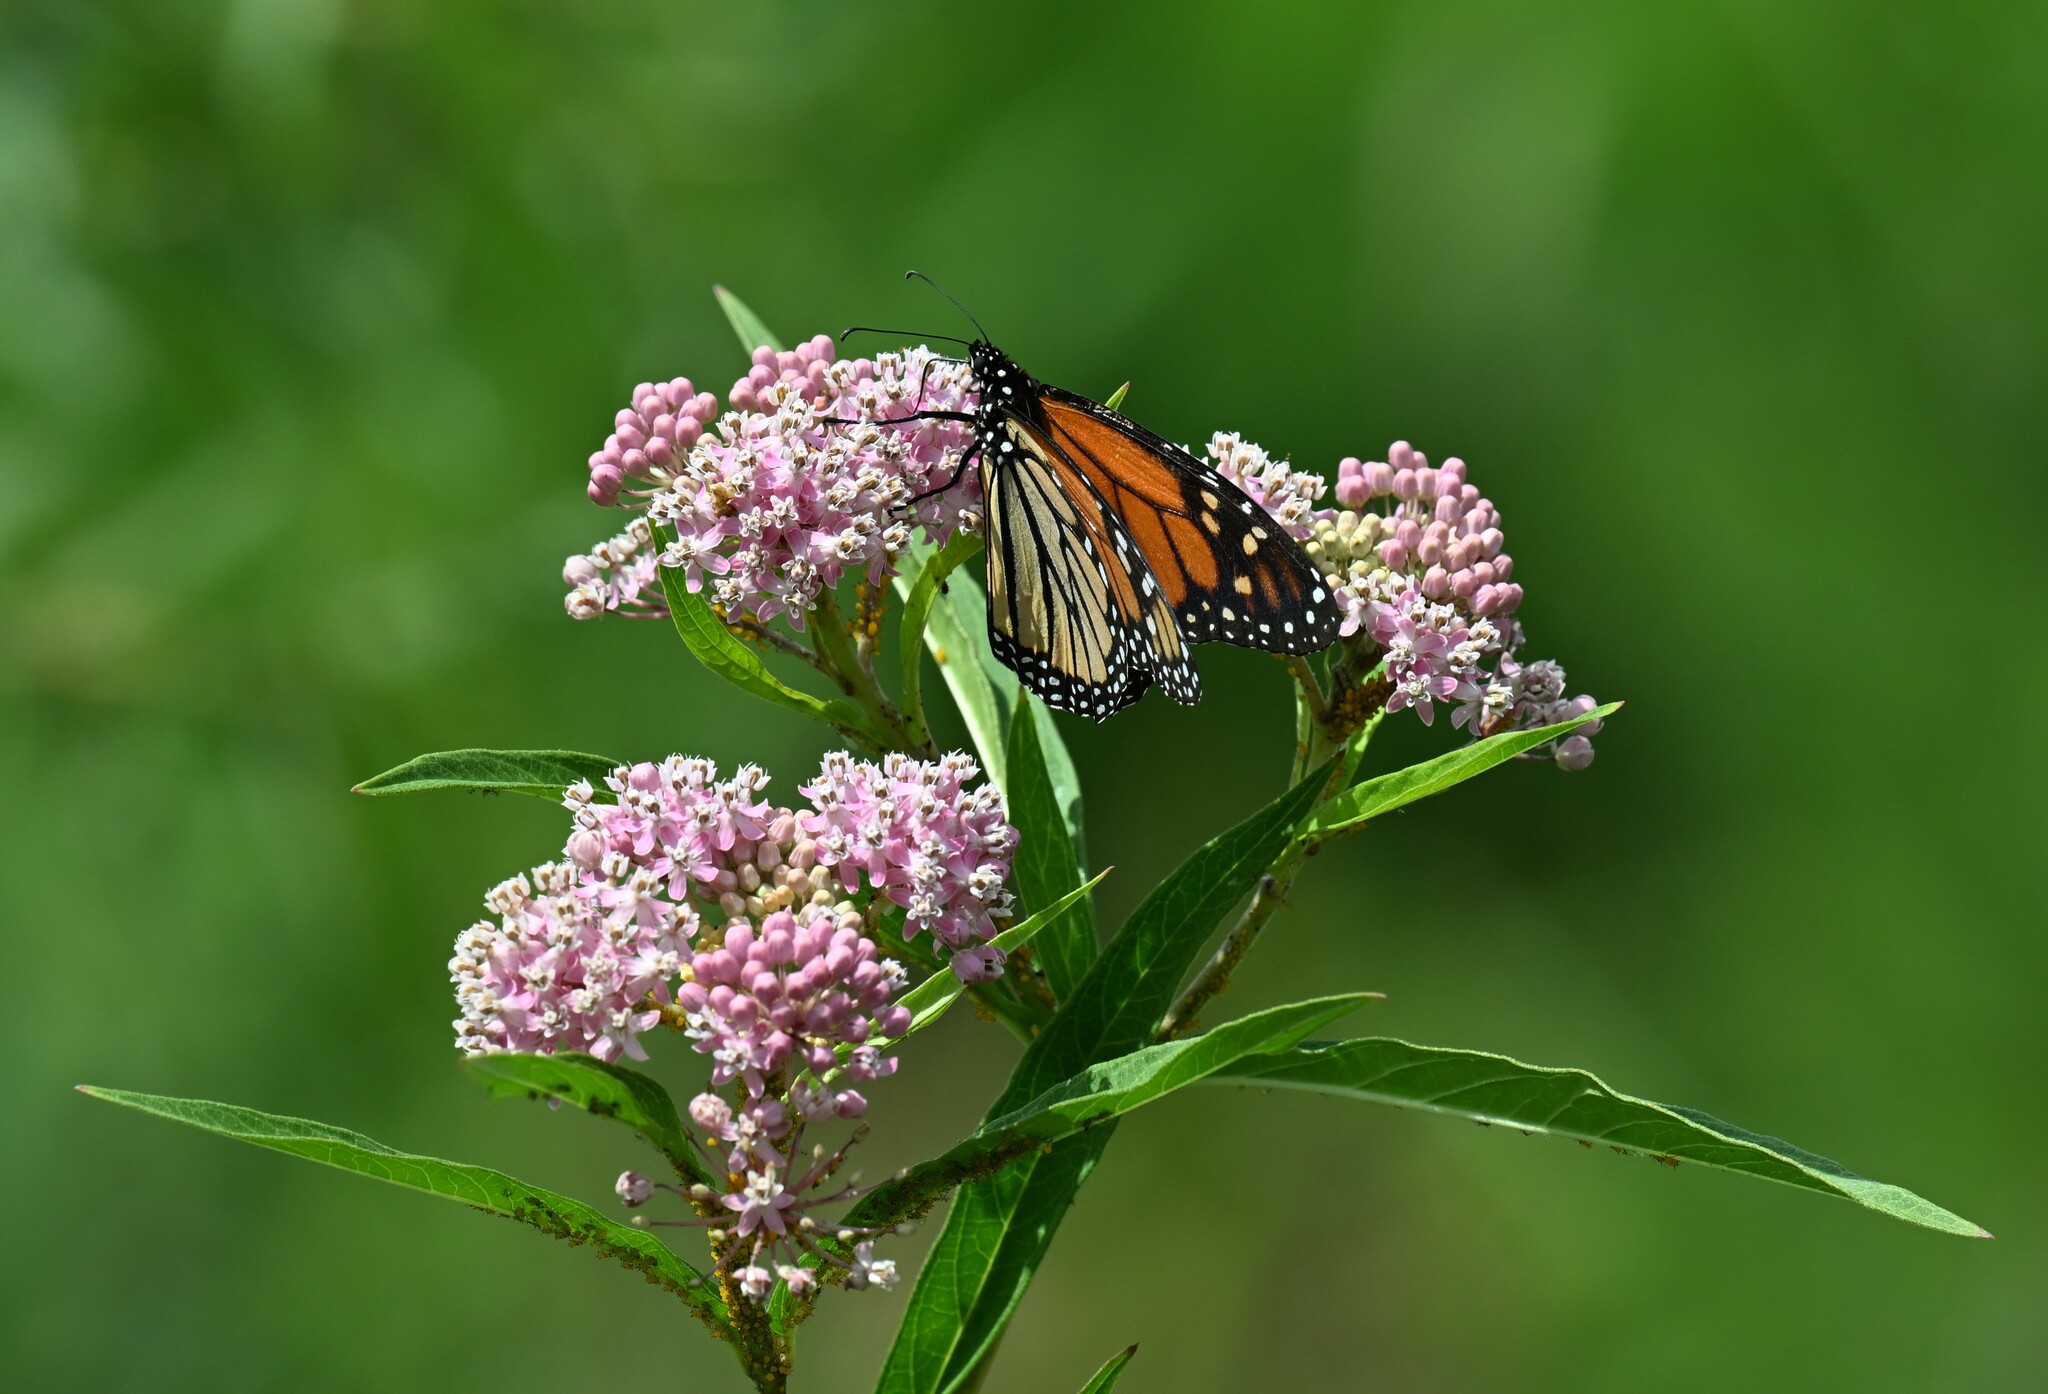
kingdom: Plantae
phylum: Tracheophyta
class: Magnoliopsida
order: Gentianales
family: Apocynaceae
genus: Asclepias
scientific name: Asclepias incarnata
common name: Swamp milkweed
